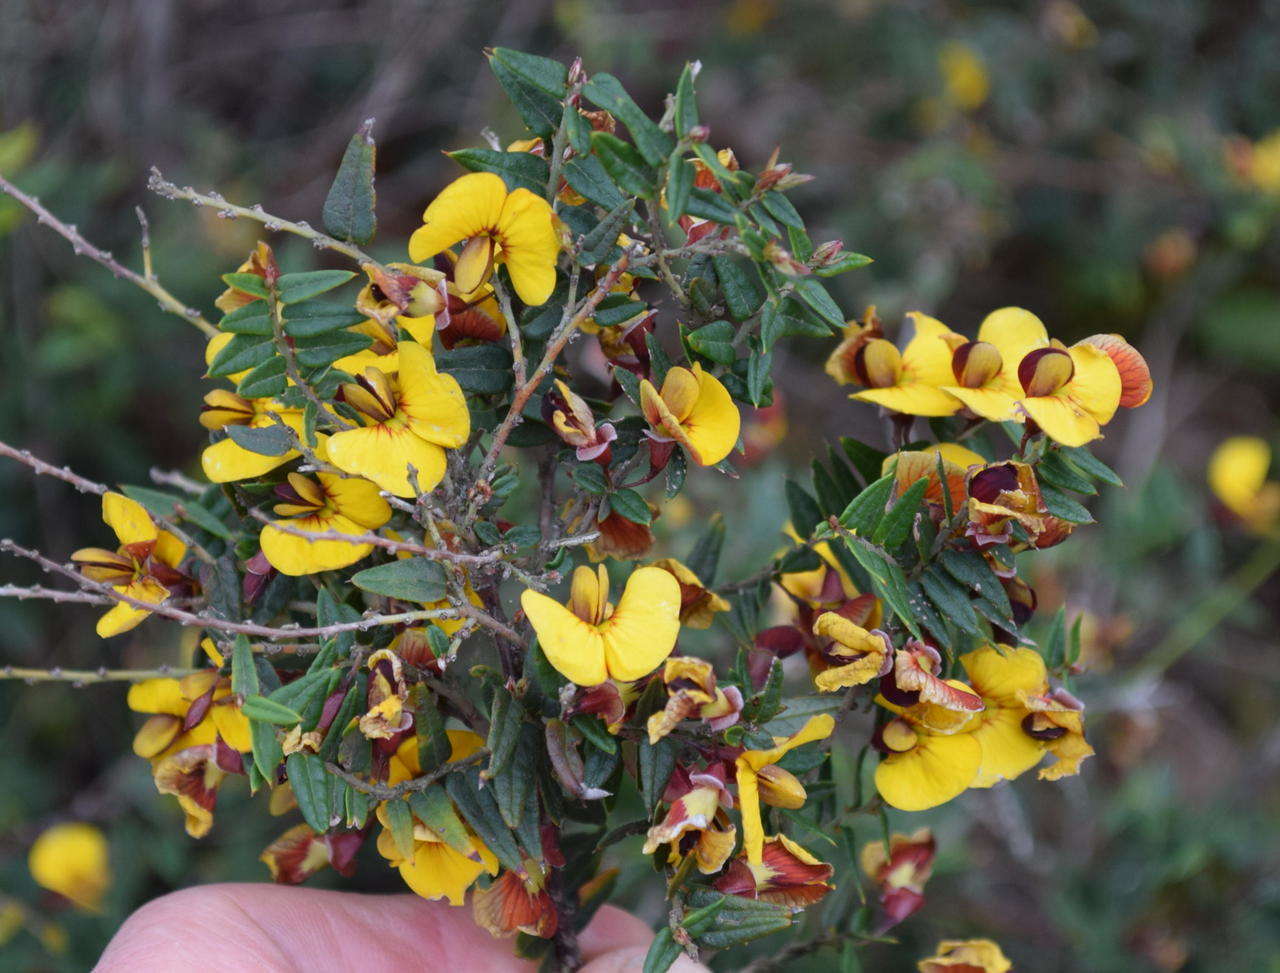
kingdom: Plantae
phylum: Tracheophyta
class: Magnoliopsida
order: Fabales
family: Fabaceae
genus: Bossiaea
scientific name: Bossiaea cinerea
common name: Showy bossiaea
